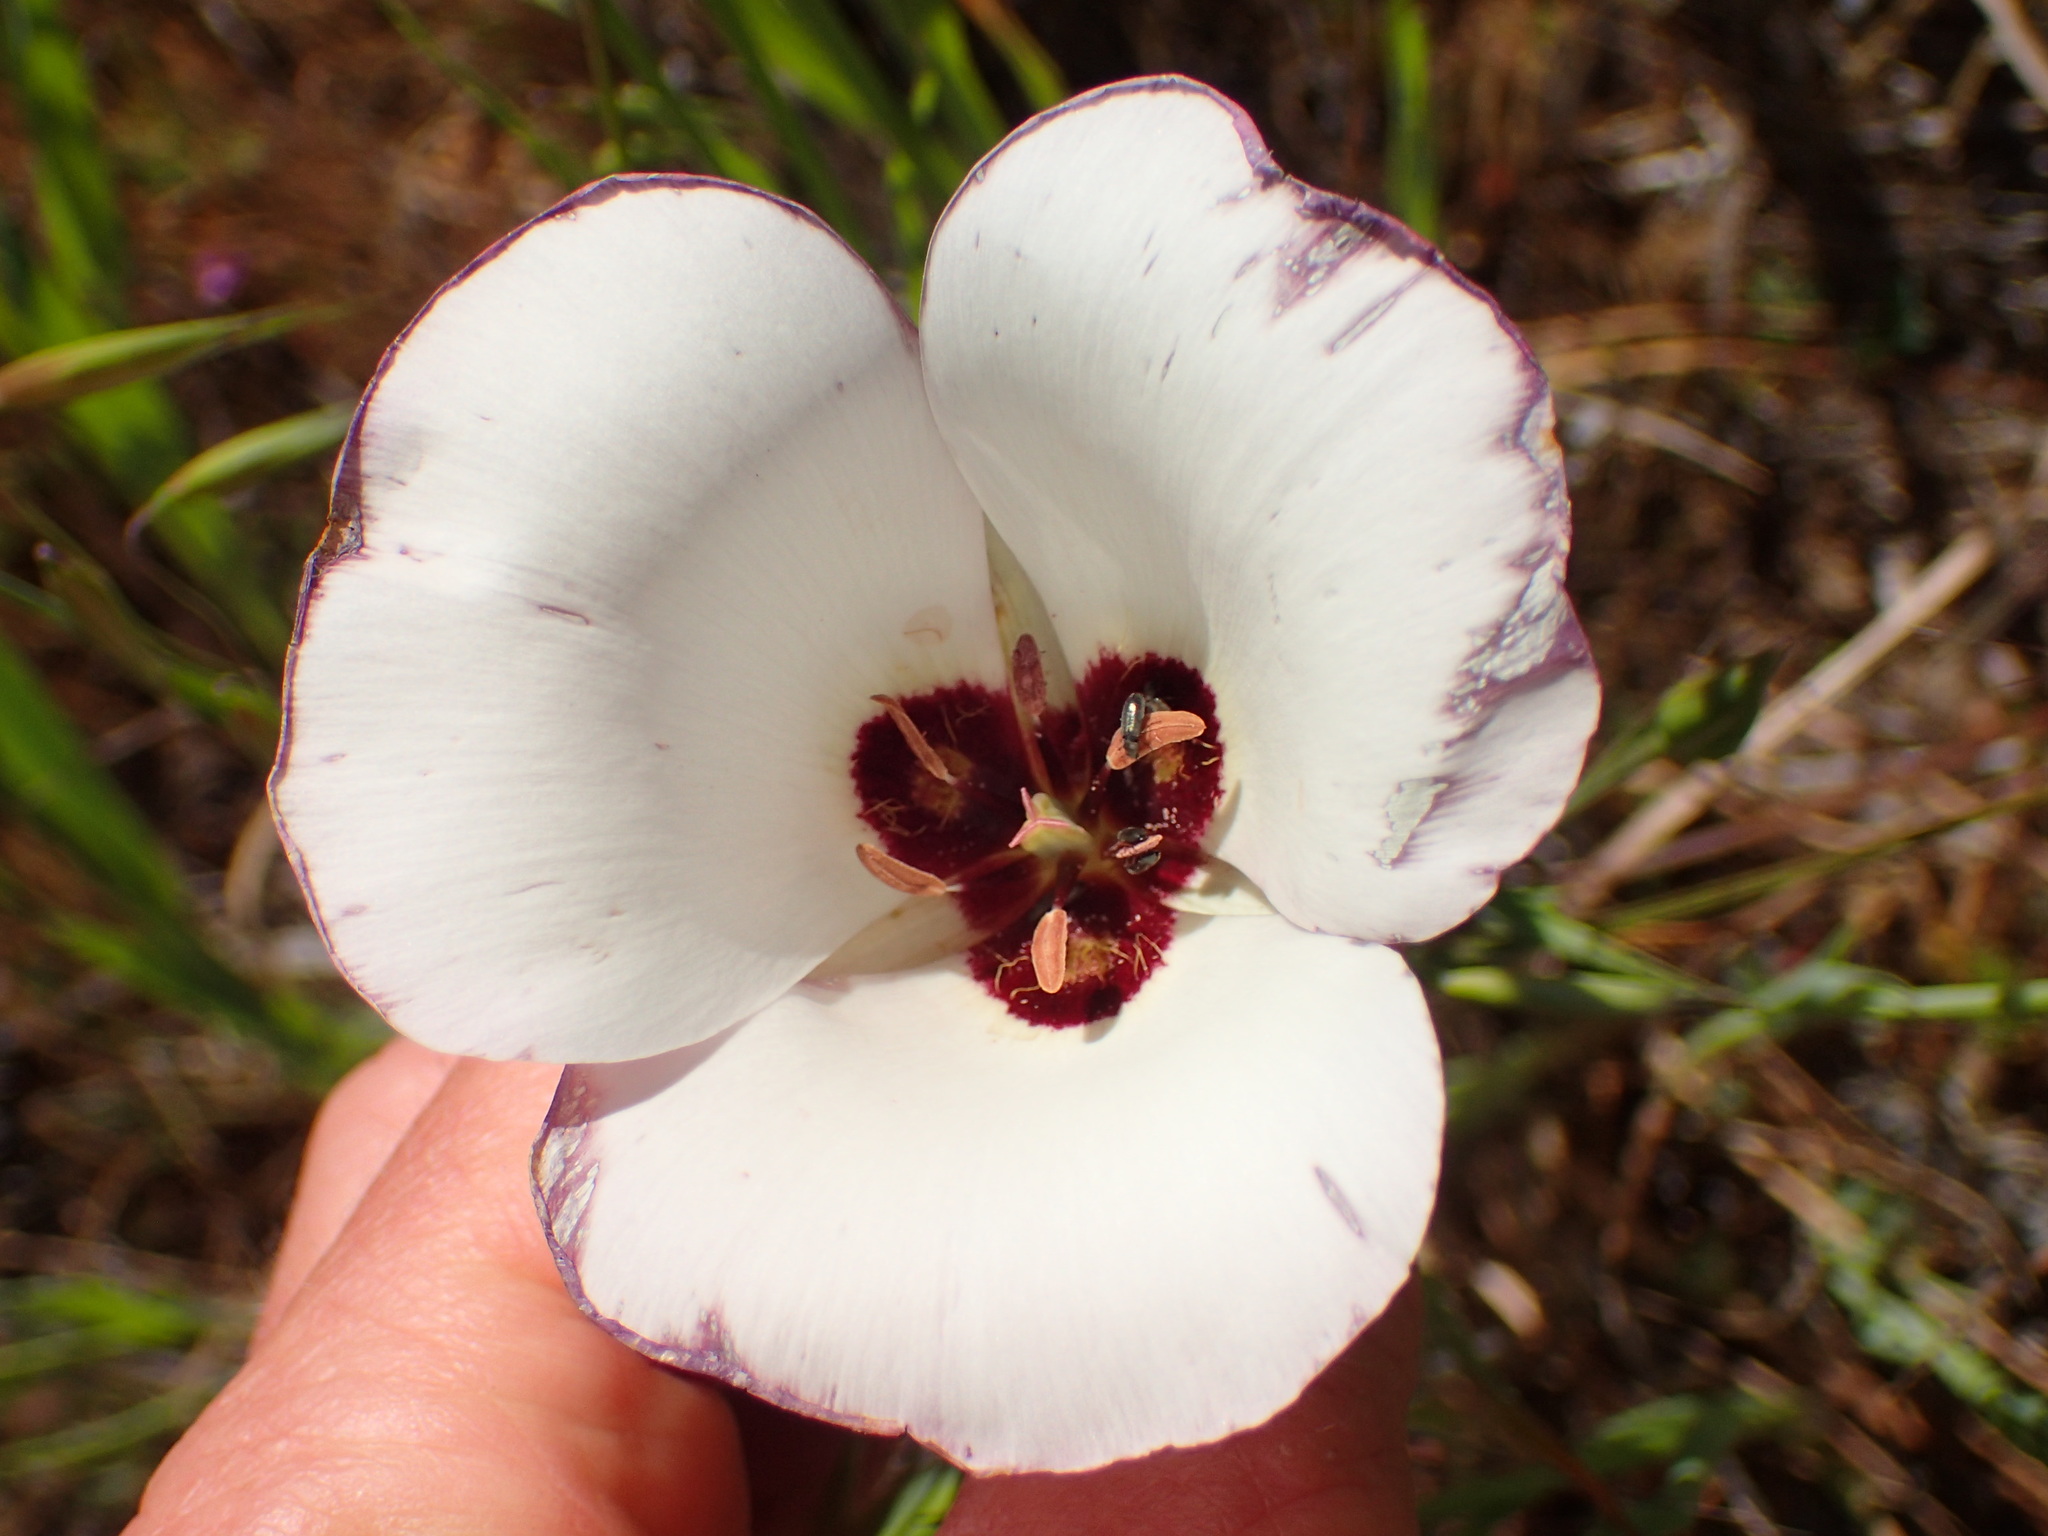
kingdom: Plantae
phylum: Tracheophyta
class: Liliopsida
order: Liliales
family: Liliaceae
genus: Calochortus
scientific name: Calochortus catalinae
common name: Catalina mariposa-lily
